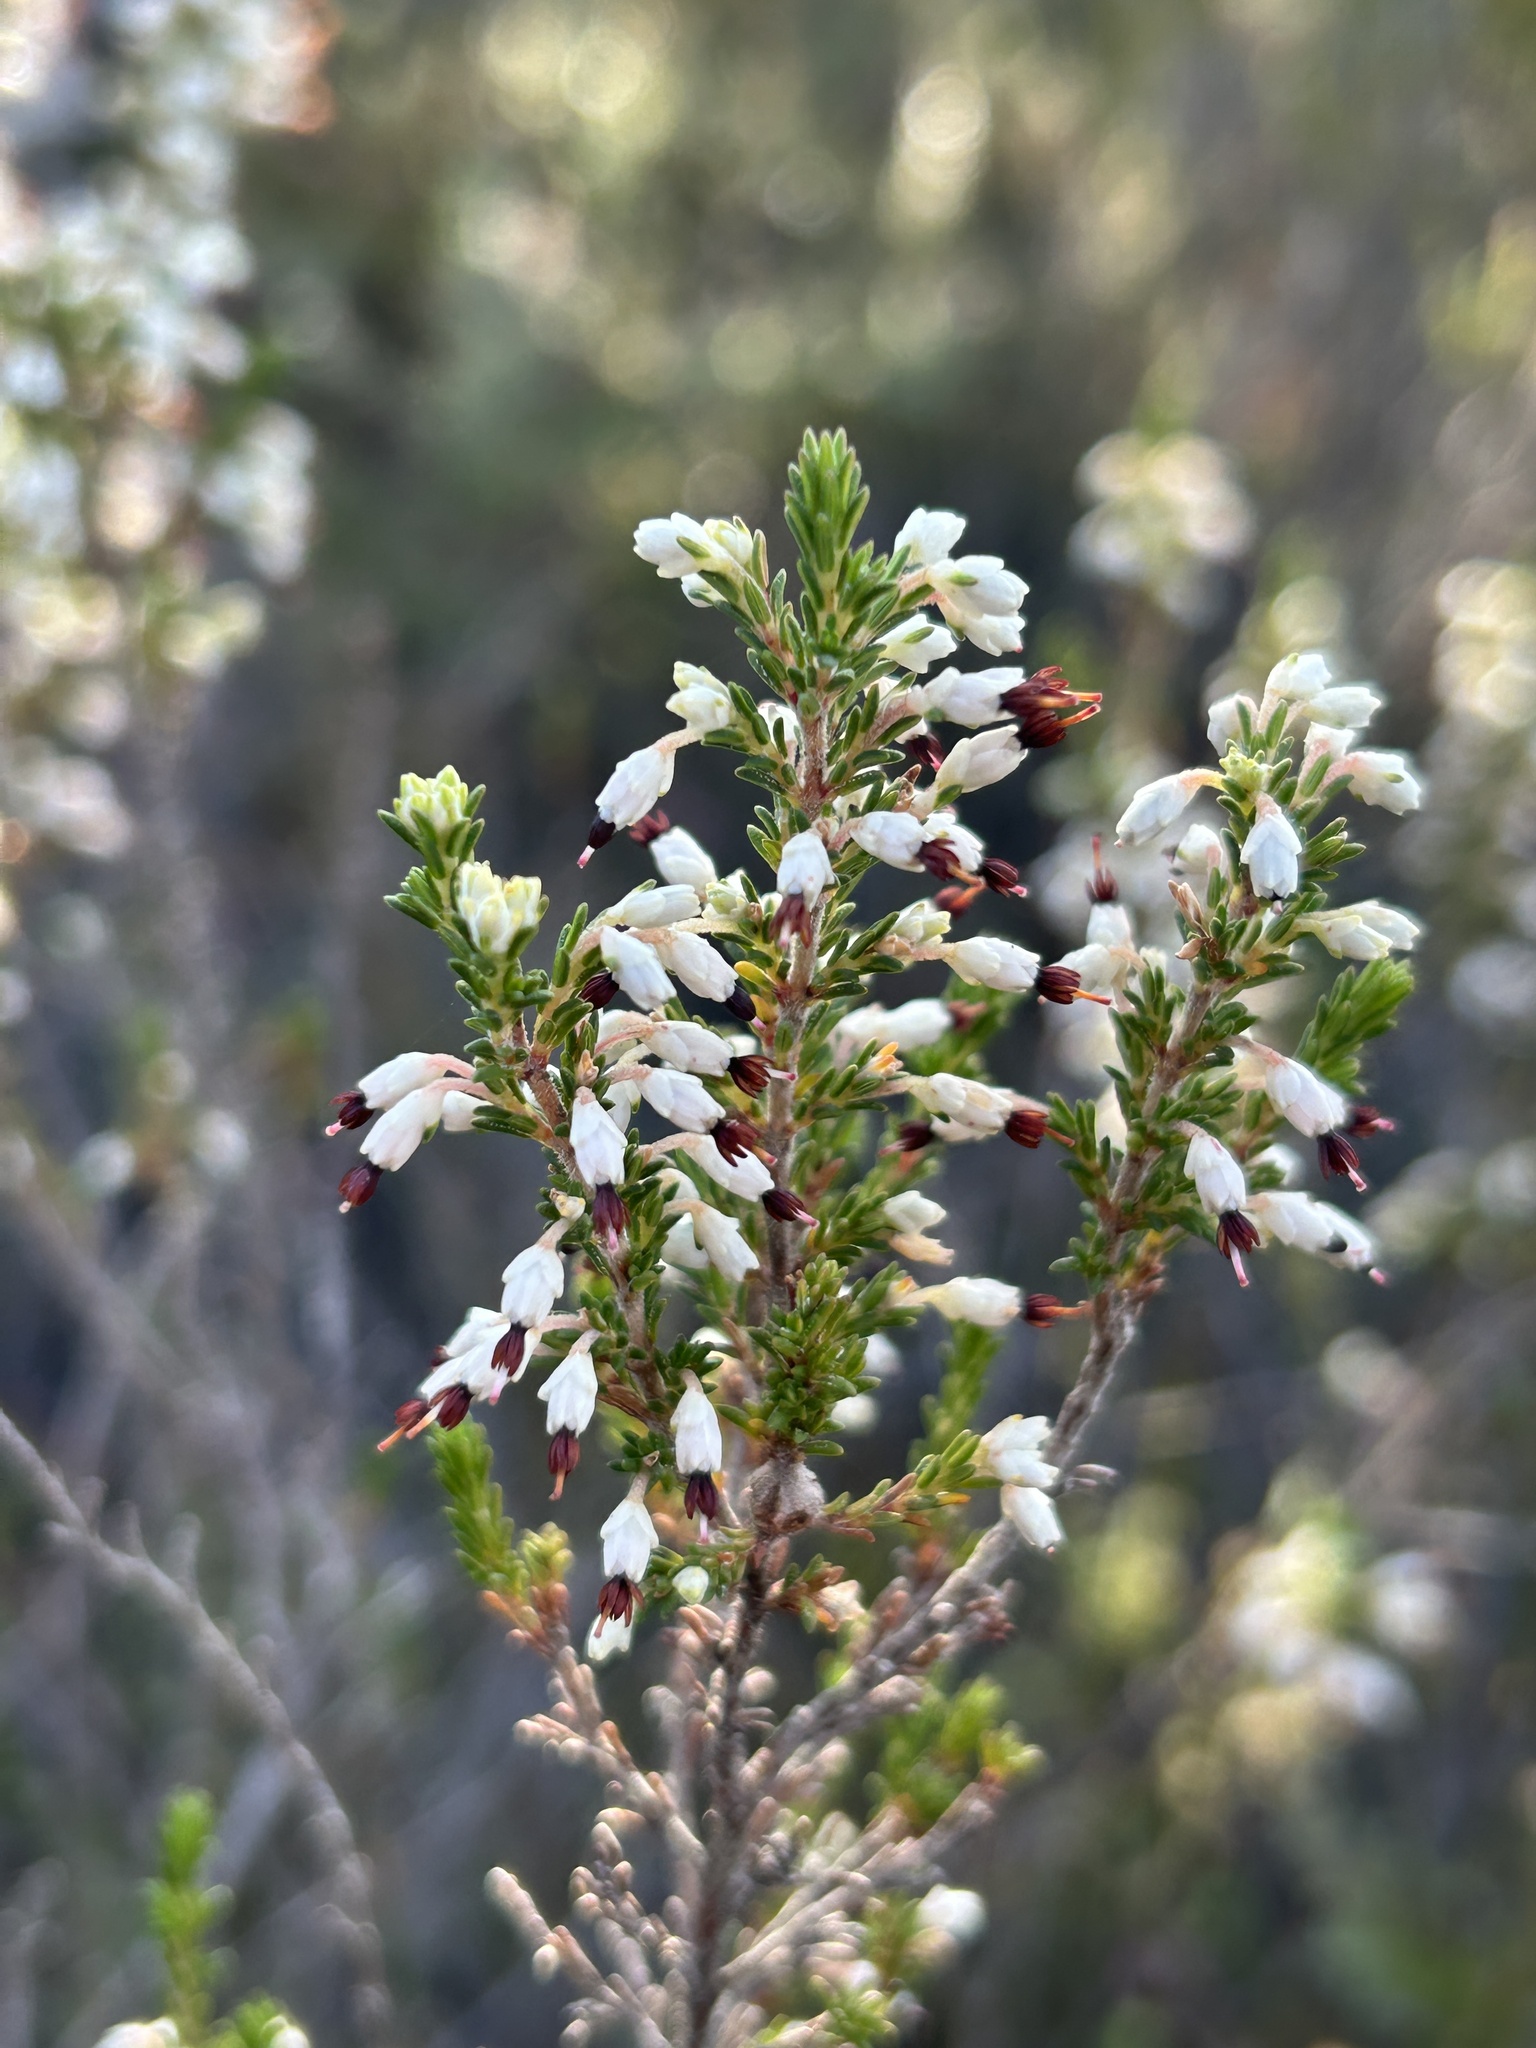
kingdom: Plantae
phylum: Tracheophyta
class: Magnoliopsida
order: Ericales
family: Ericaceae
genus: Erica
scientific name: Erica imbricata
